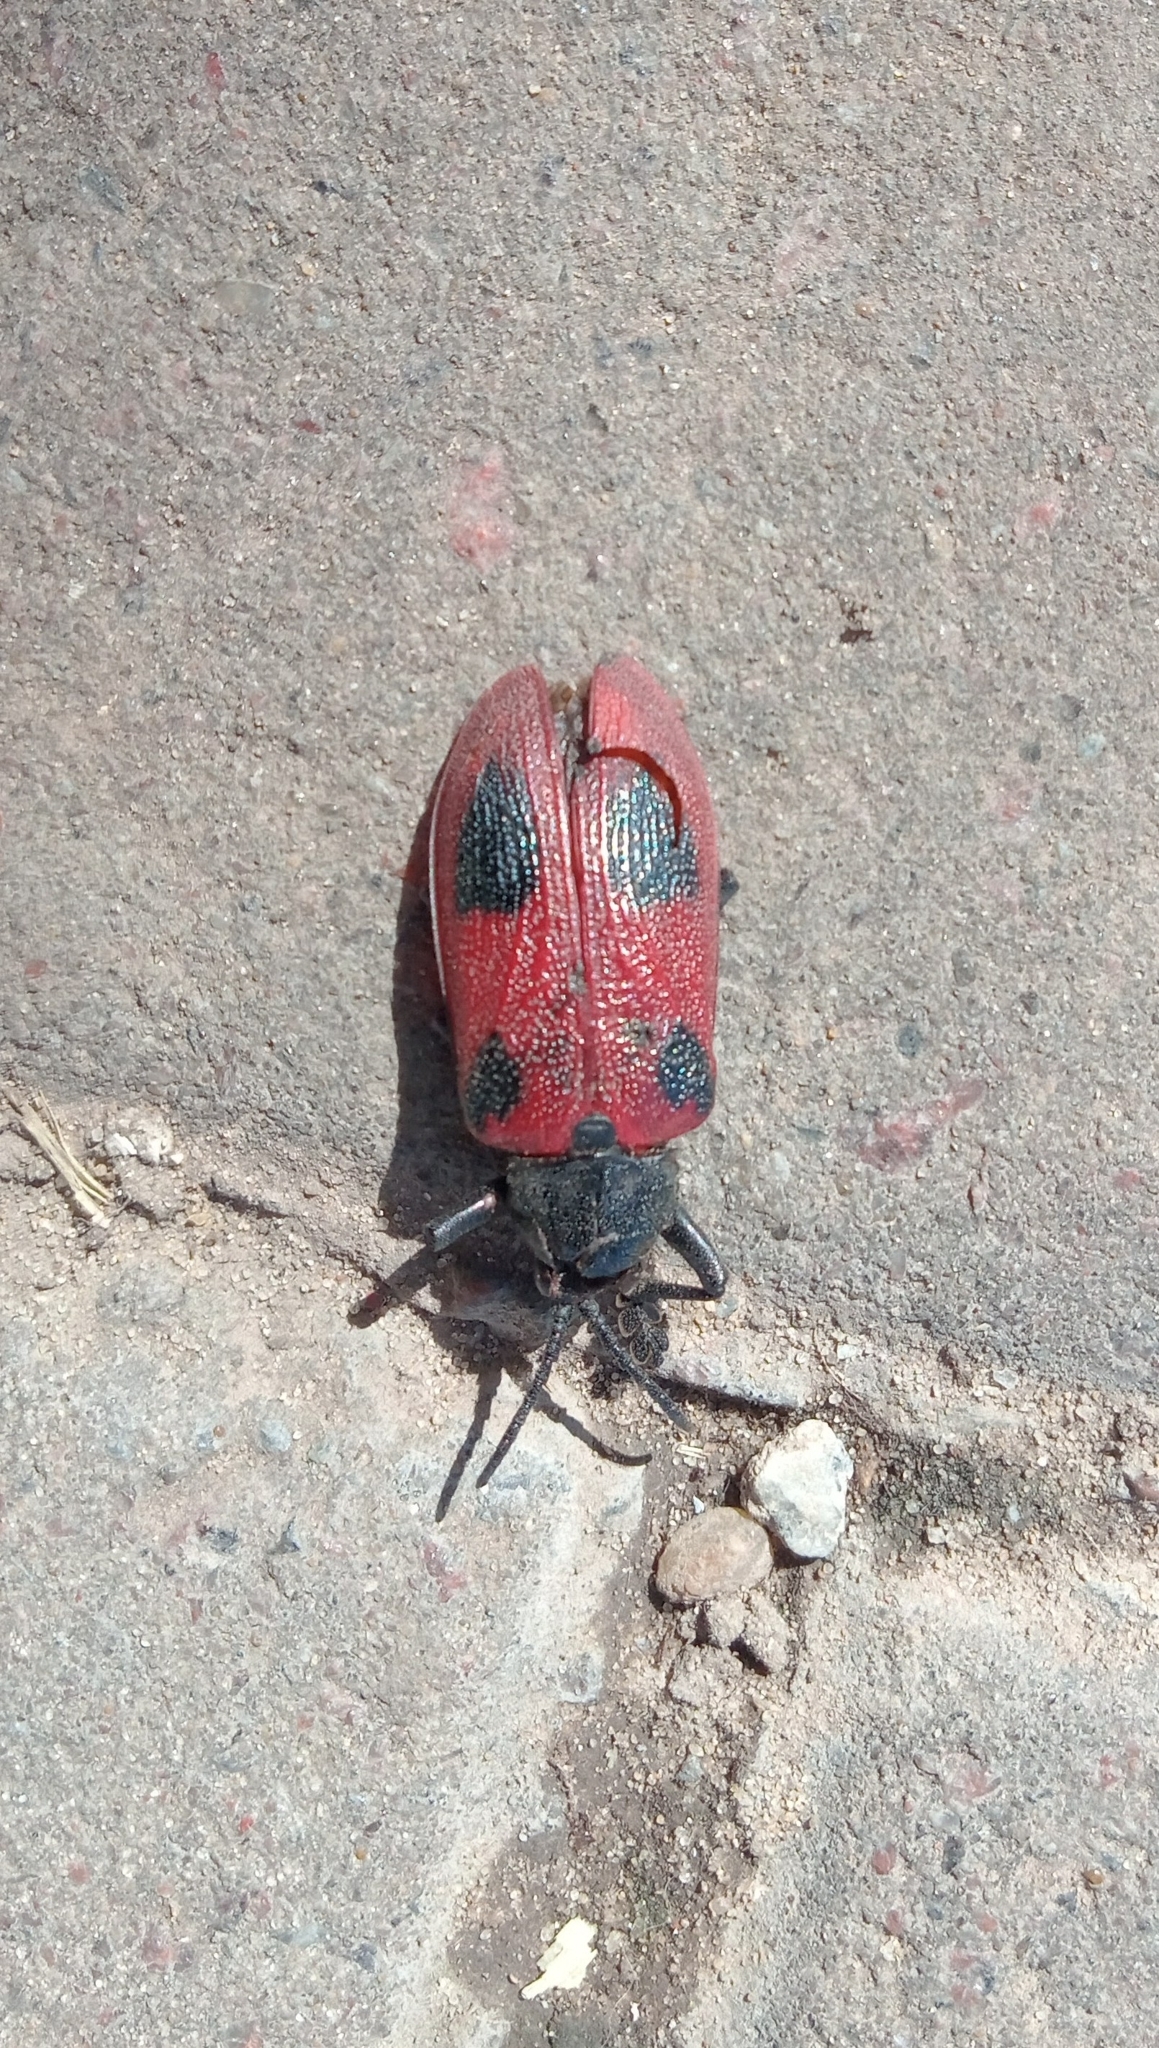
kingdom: Animalia
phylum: Arthropoda
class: Insecta
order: Coleoptera
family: Chrysomelidae
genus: Coraliomela
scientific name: Coraliomela quadrimaculata
